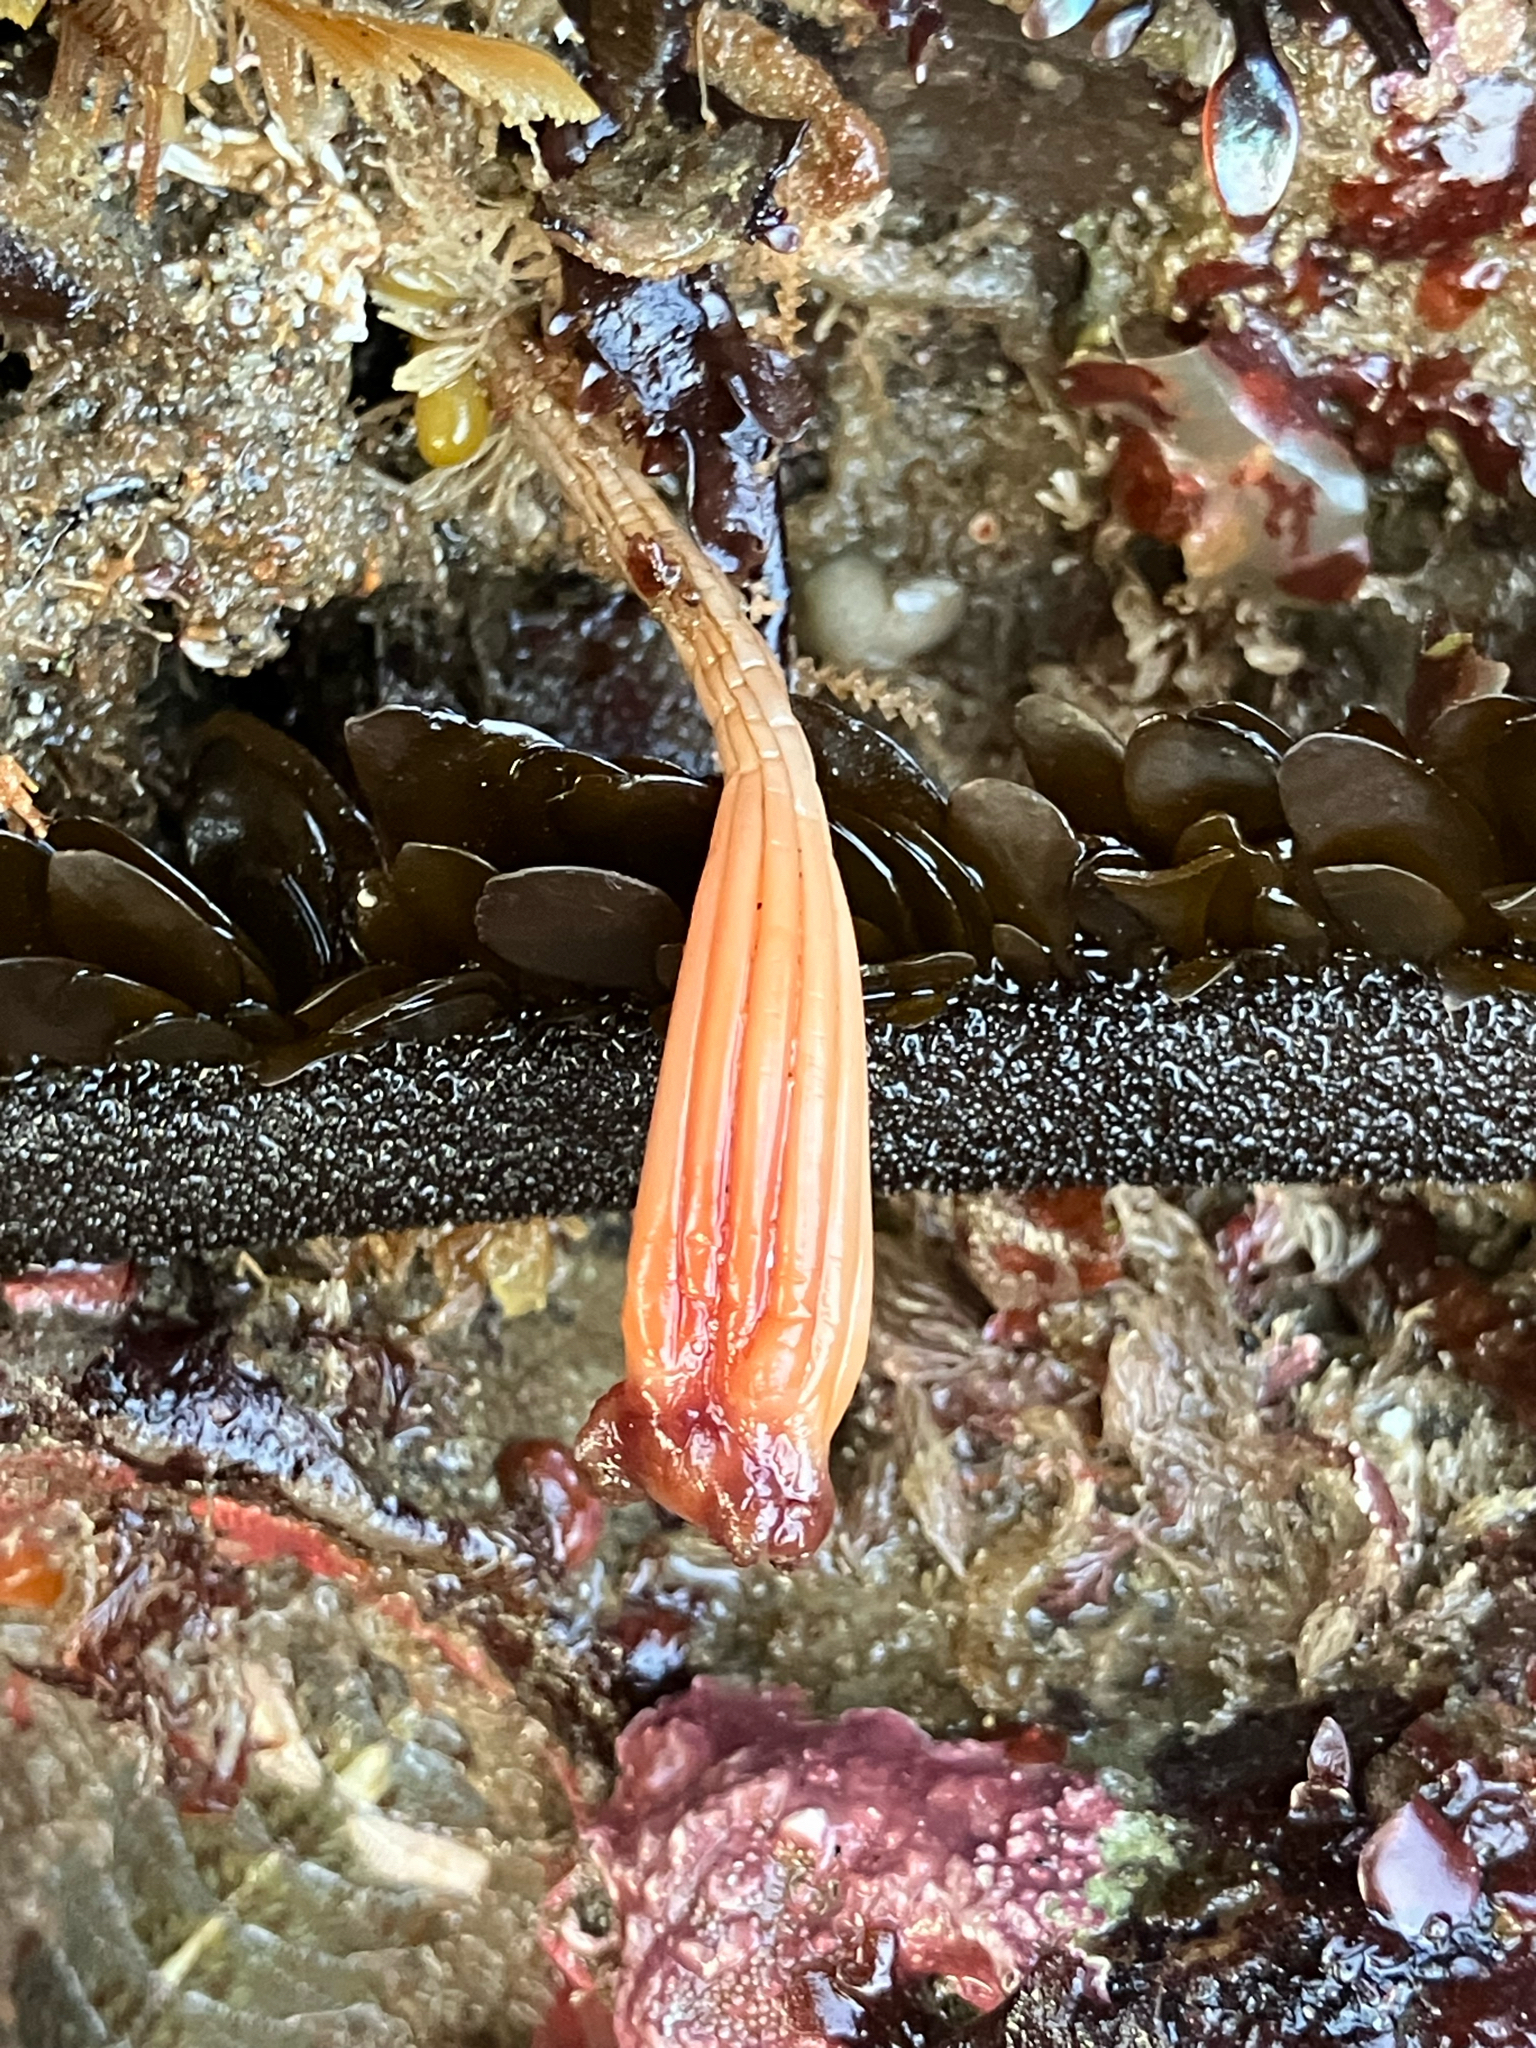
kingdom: Animalia
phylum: Chordata
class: Ascidiacea
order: Stolidobranchia
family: Styelidae
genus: Styela
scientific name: Styela montereyensis
